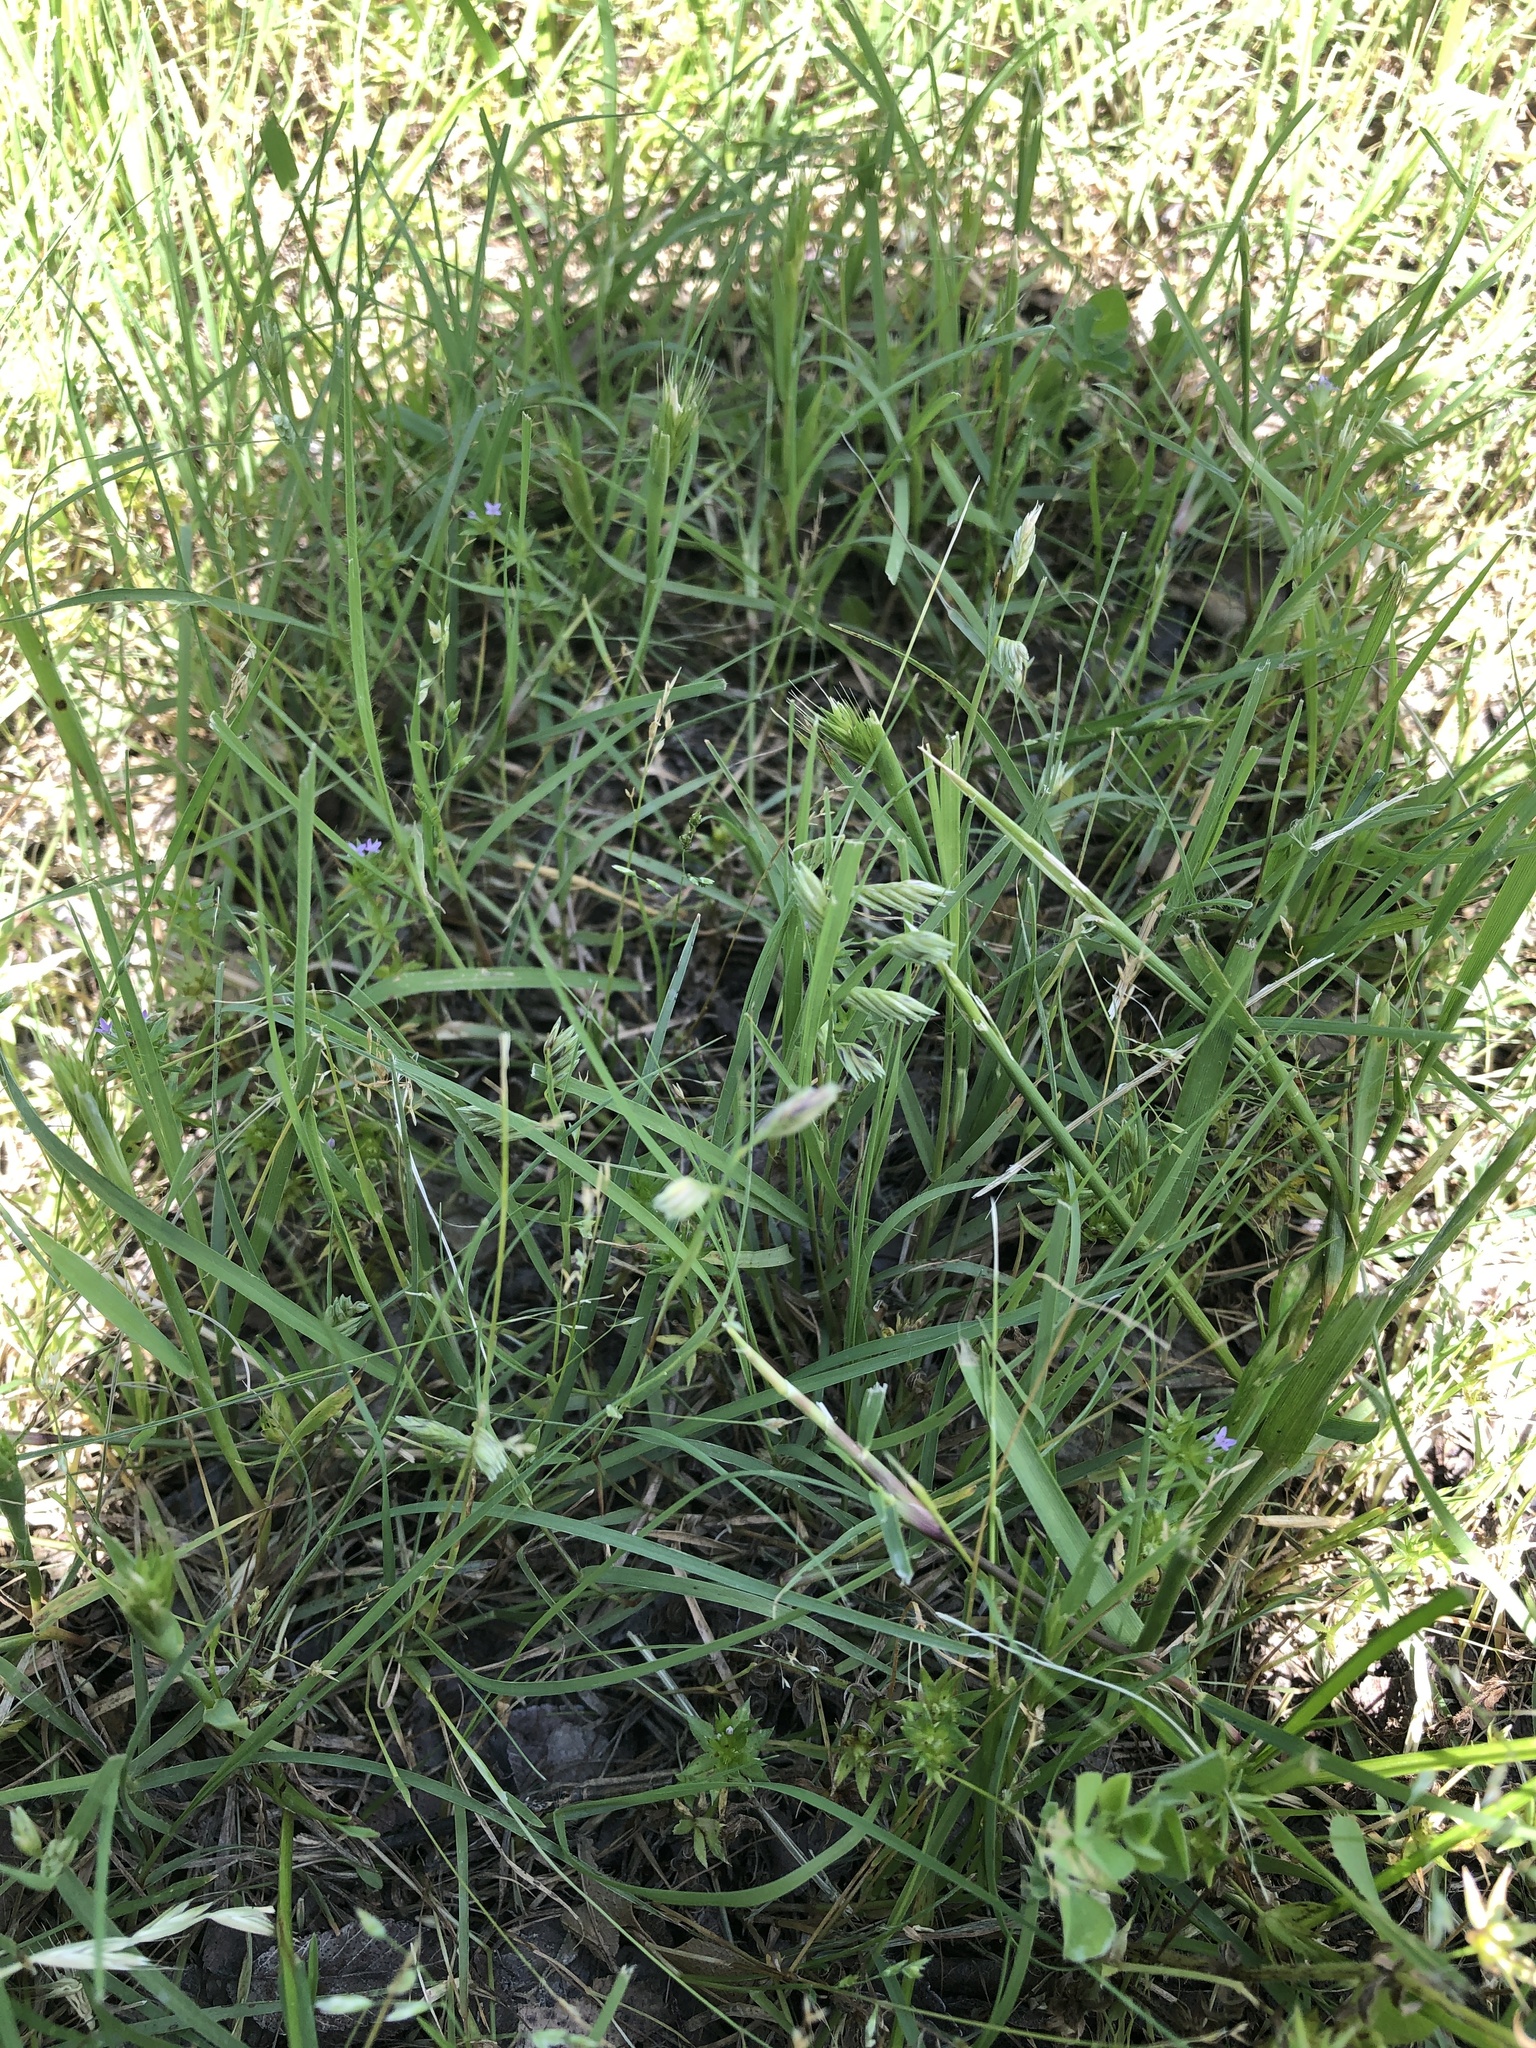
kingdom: Plantae
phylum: Tracheophyta
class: Liliopsida
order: Poales
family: Poaceae
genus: Bouteloua
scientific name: Bouteloua dactyloides
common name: Buffalo grass
